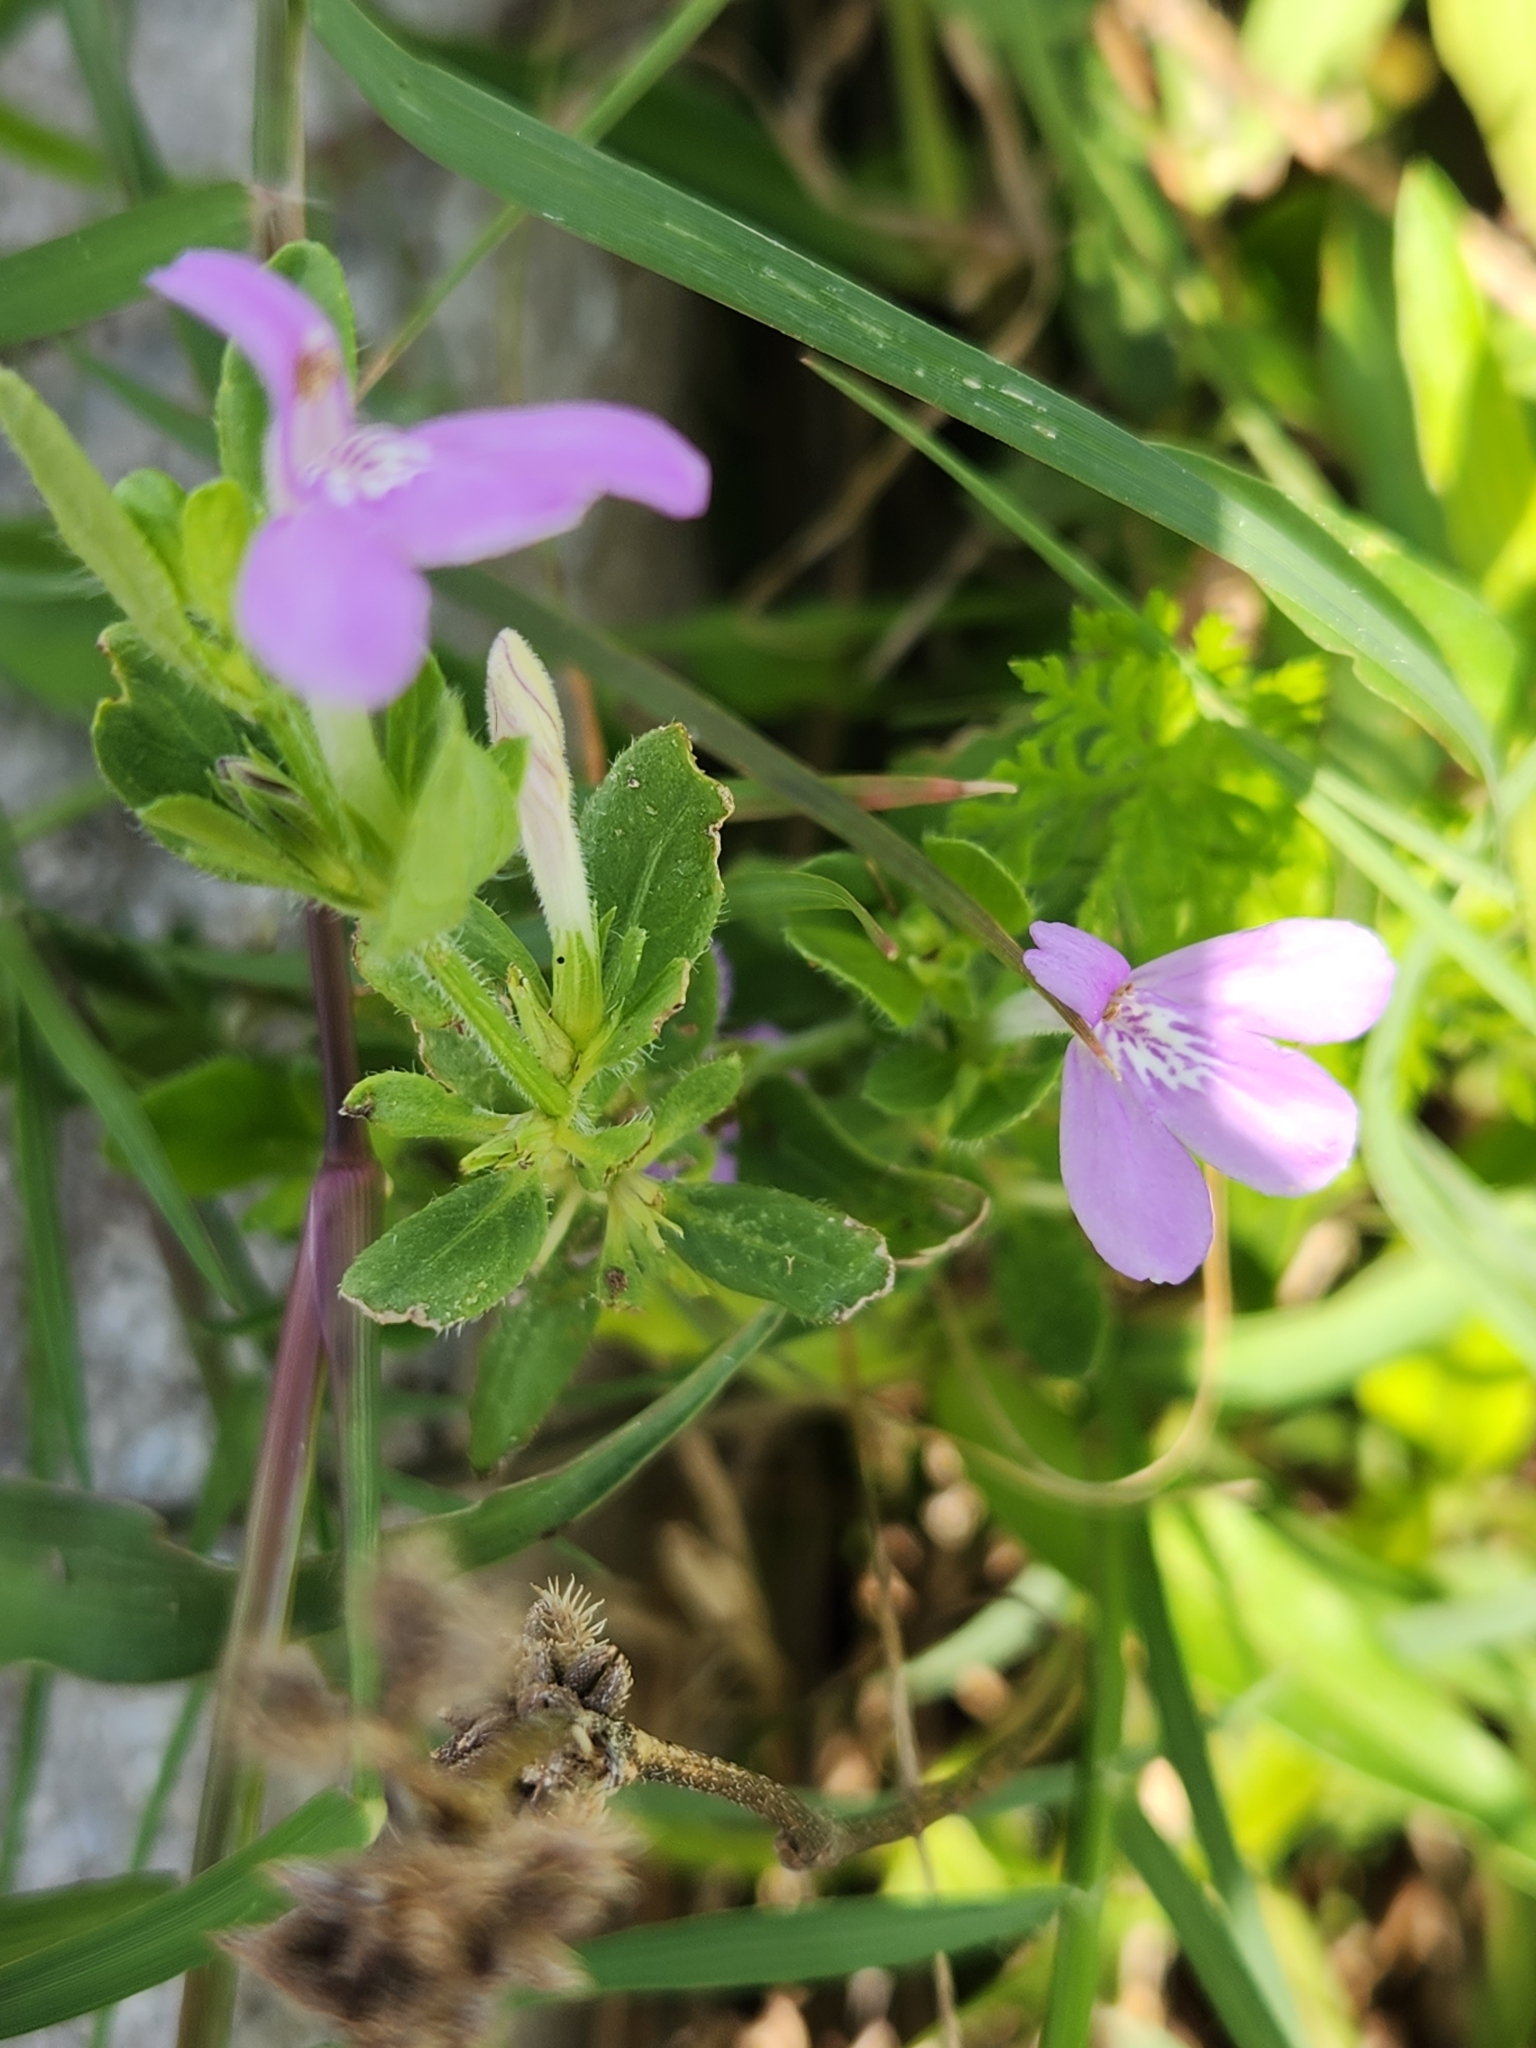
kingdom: Plantae
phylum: Tracheophyta
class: Magnoliopsida
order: Lamiales
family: Acanthaceae
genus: Justicia
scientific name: Justicia pilosella
